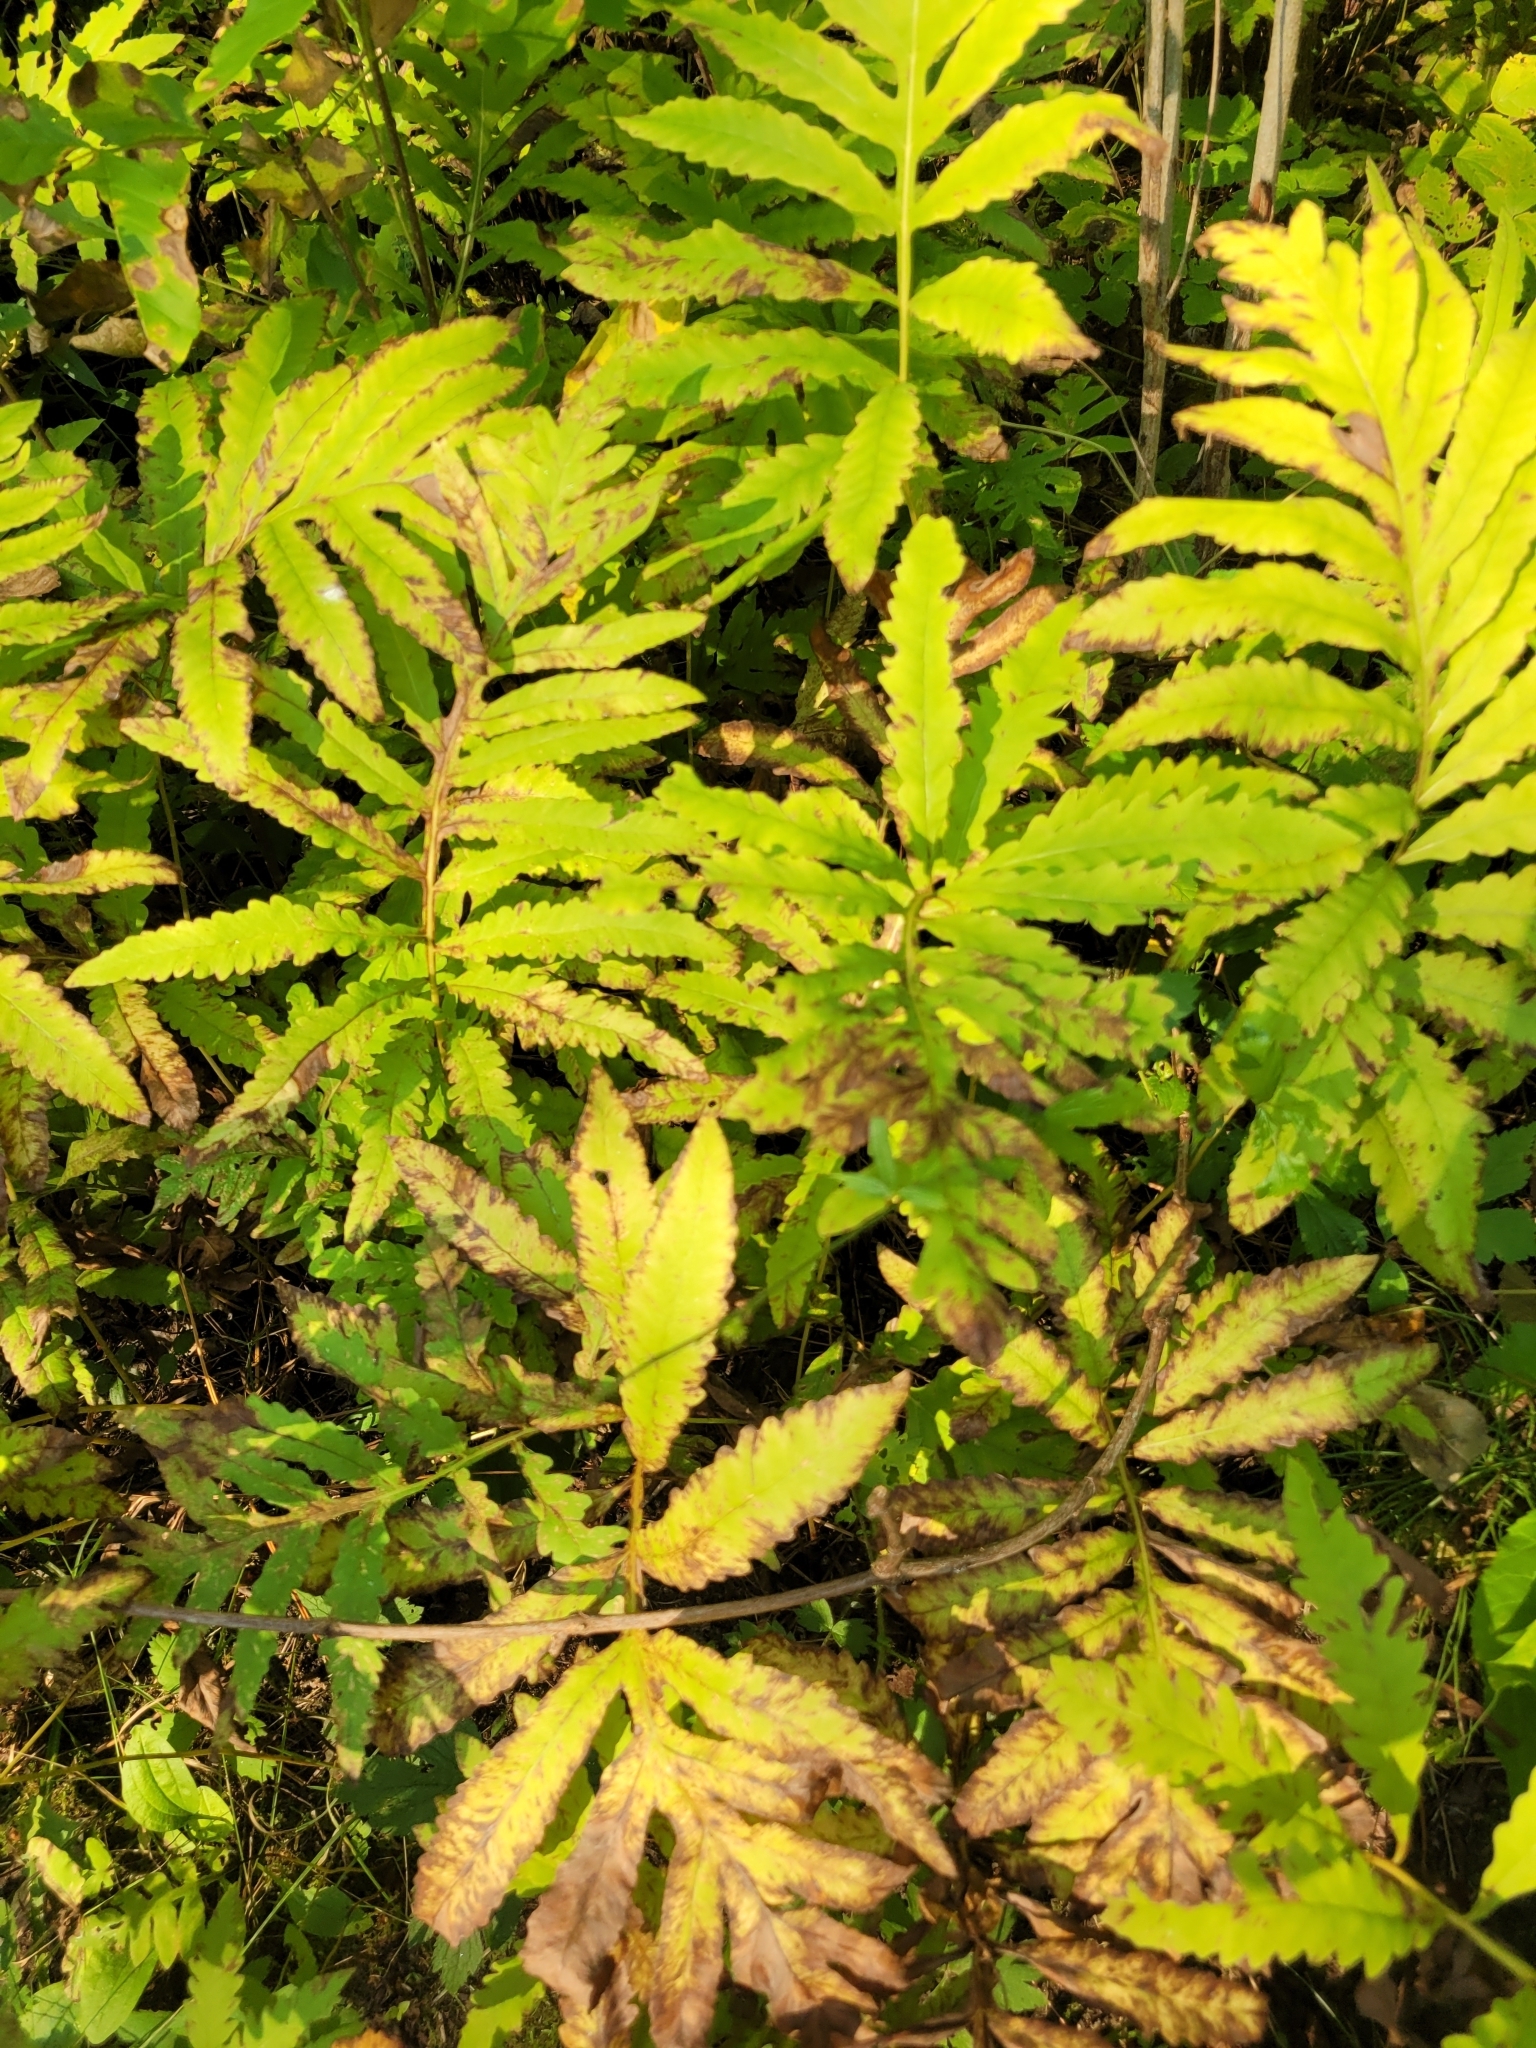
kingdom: Plantae
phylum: Tracheophyta
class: Polypodiopsida
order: Polypodiales
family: Onocleaceae
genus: Onoclea
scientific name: Onoclea sensibilis
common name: Sensitive fern
